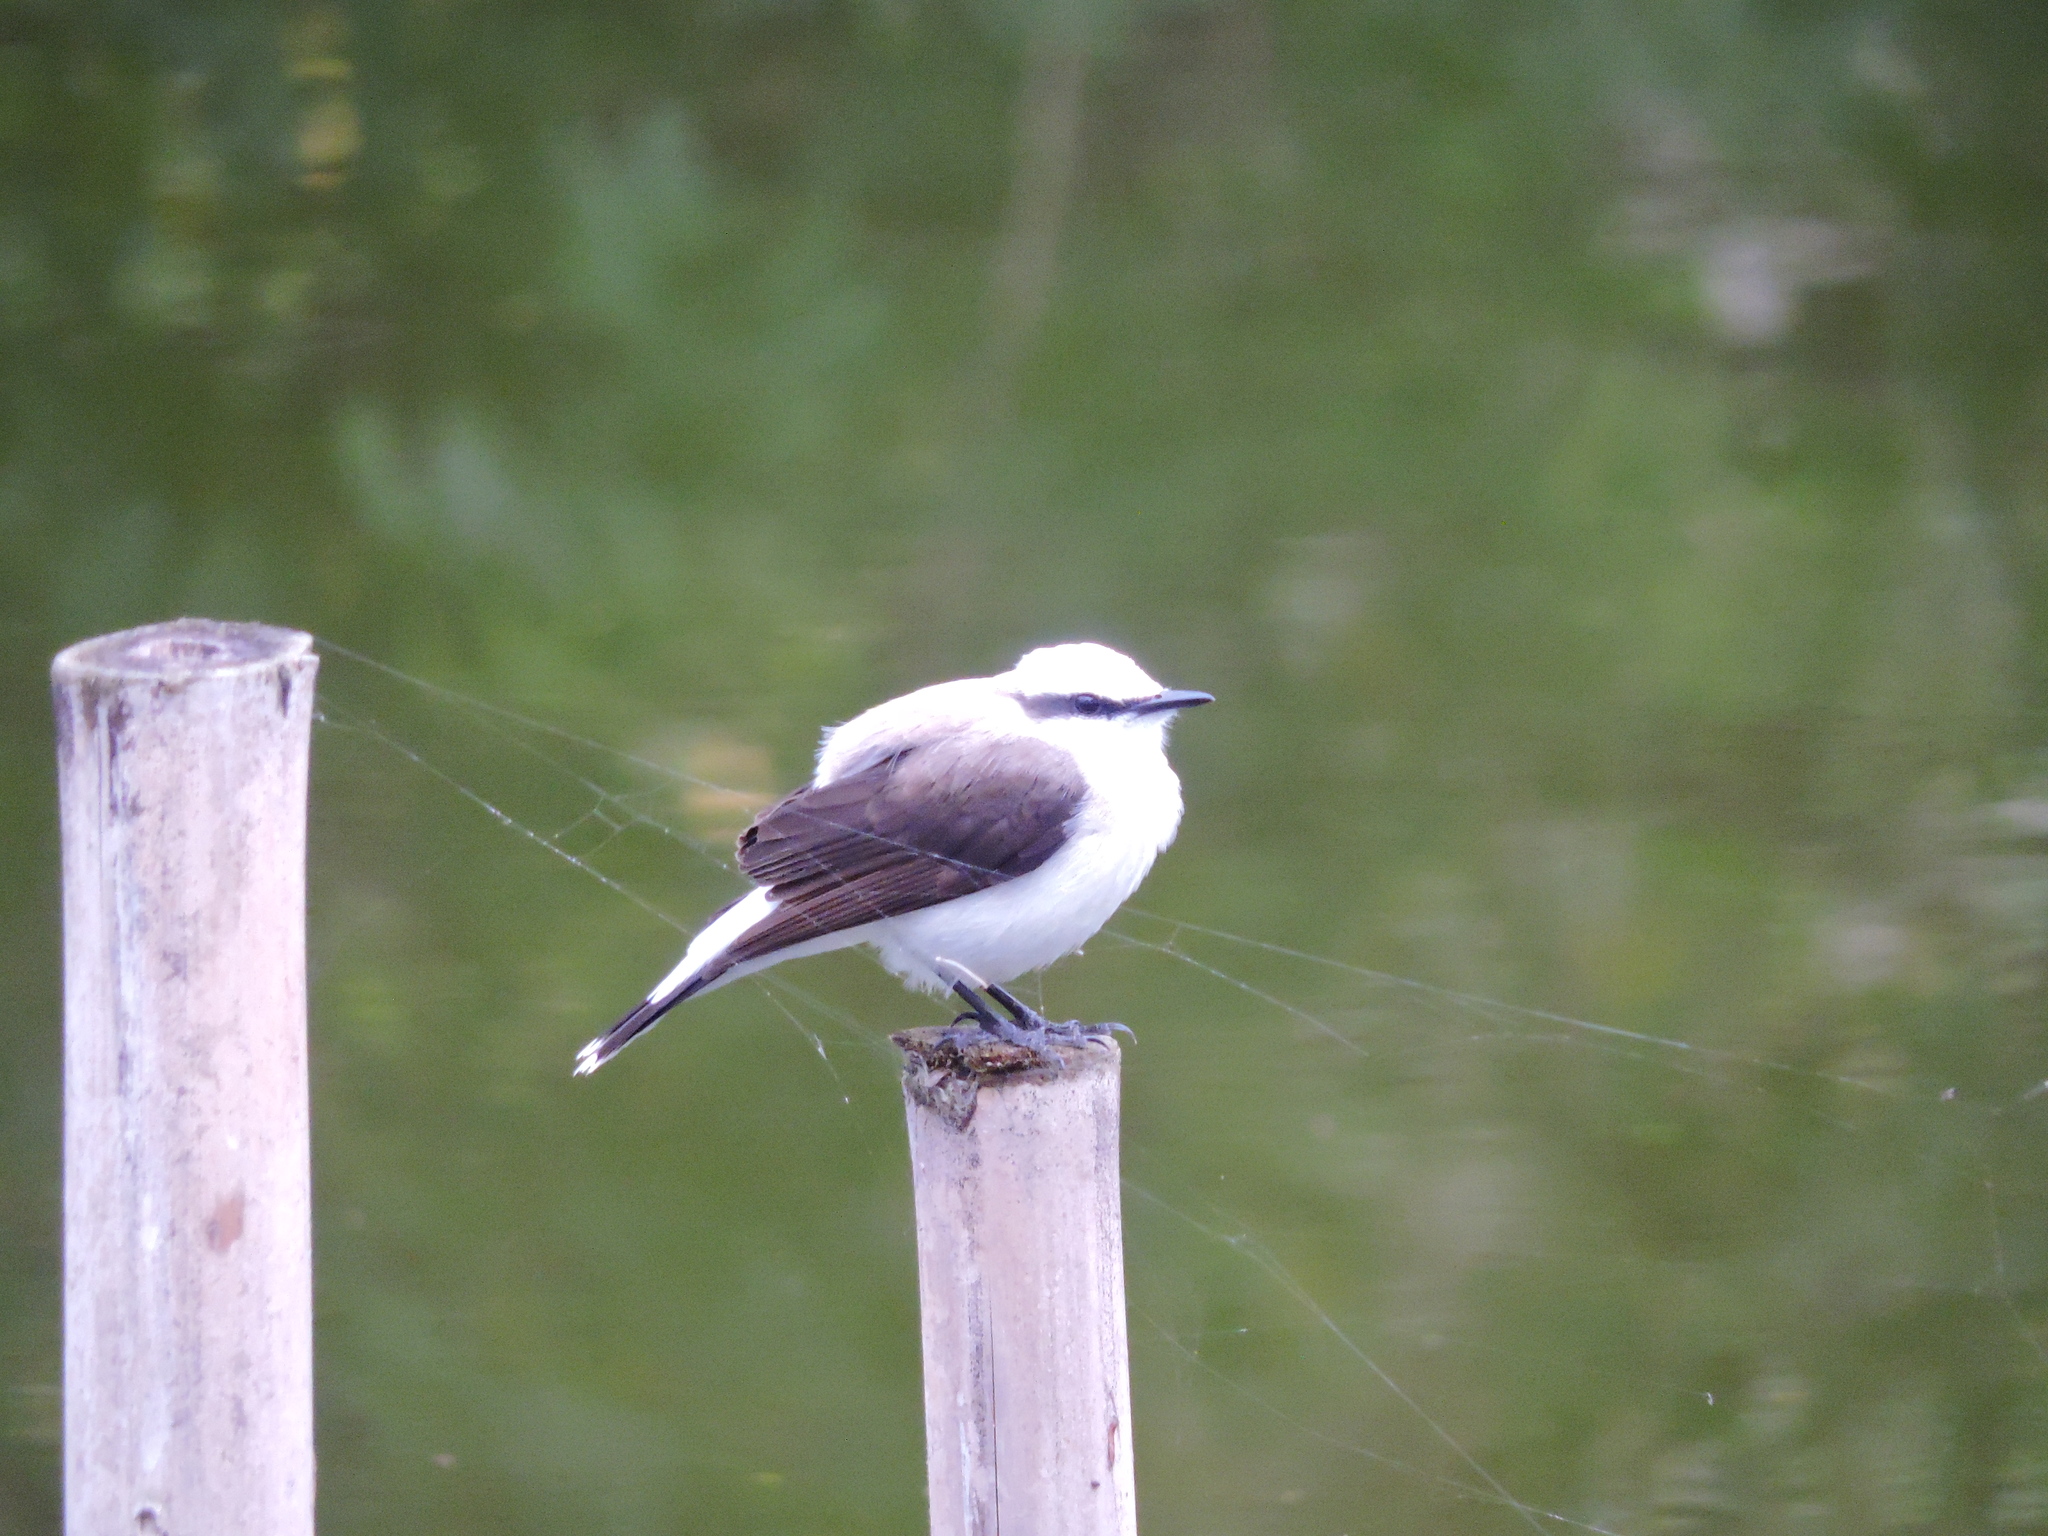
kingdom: Animalia
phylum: Chordata
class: Aves
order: Passeriformes
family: Tyrannidae
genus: Fluvicola
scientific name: Fluvicola nengeta
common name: Masked water tyrant
